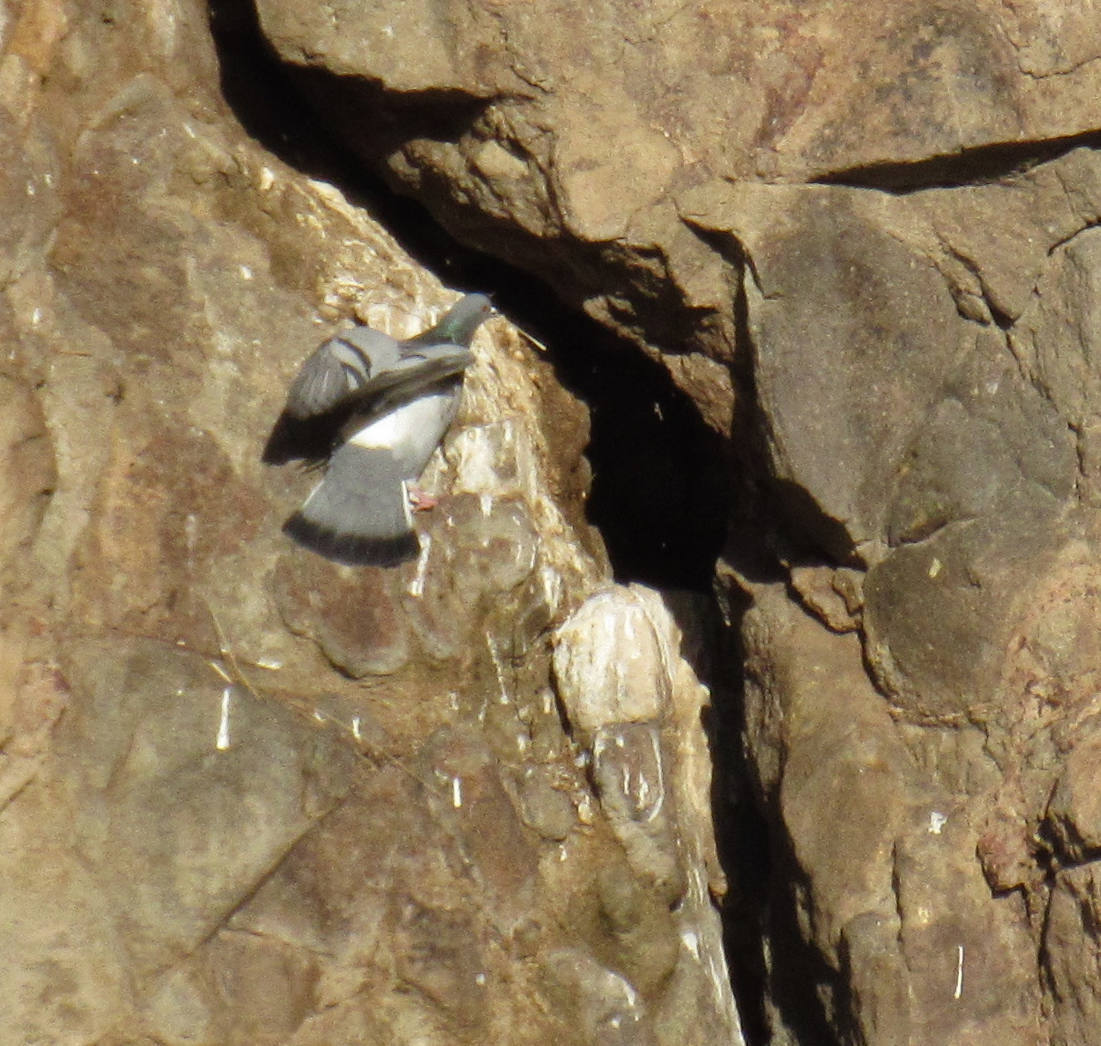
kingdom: Animalia
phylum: Chordata
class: Aves
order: Columbiformes
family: Columbidae
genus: Columba
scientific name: Columba livia
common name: Rock pigeon
